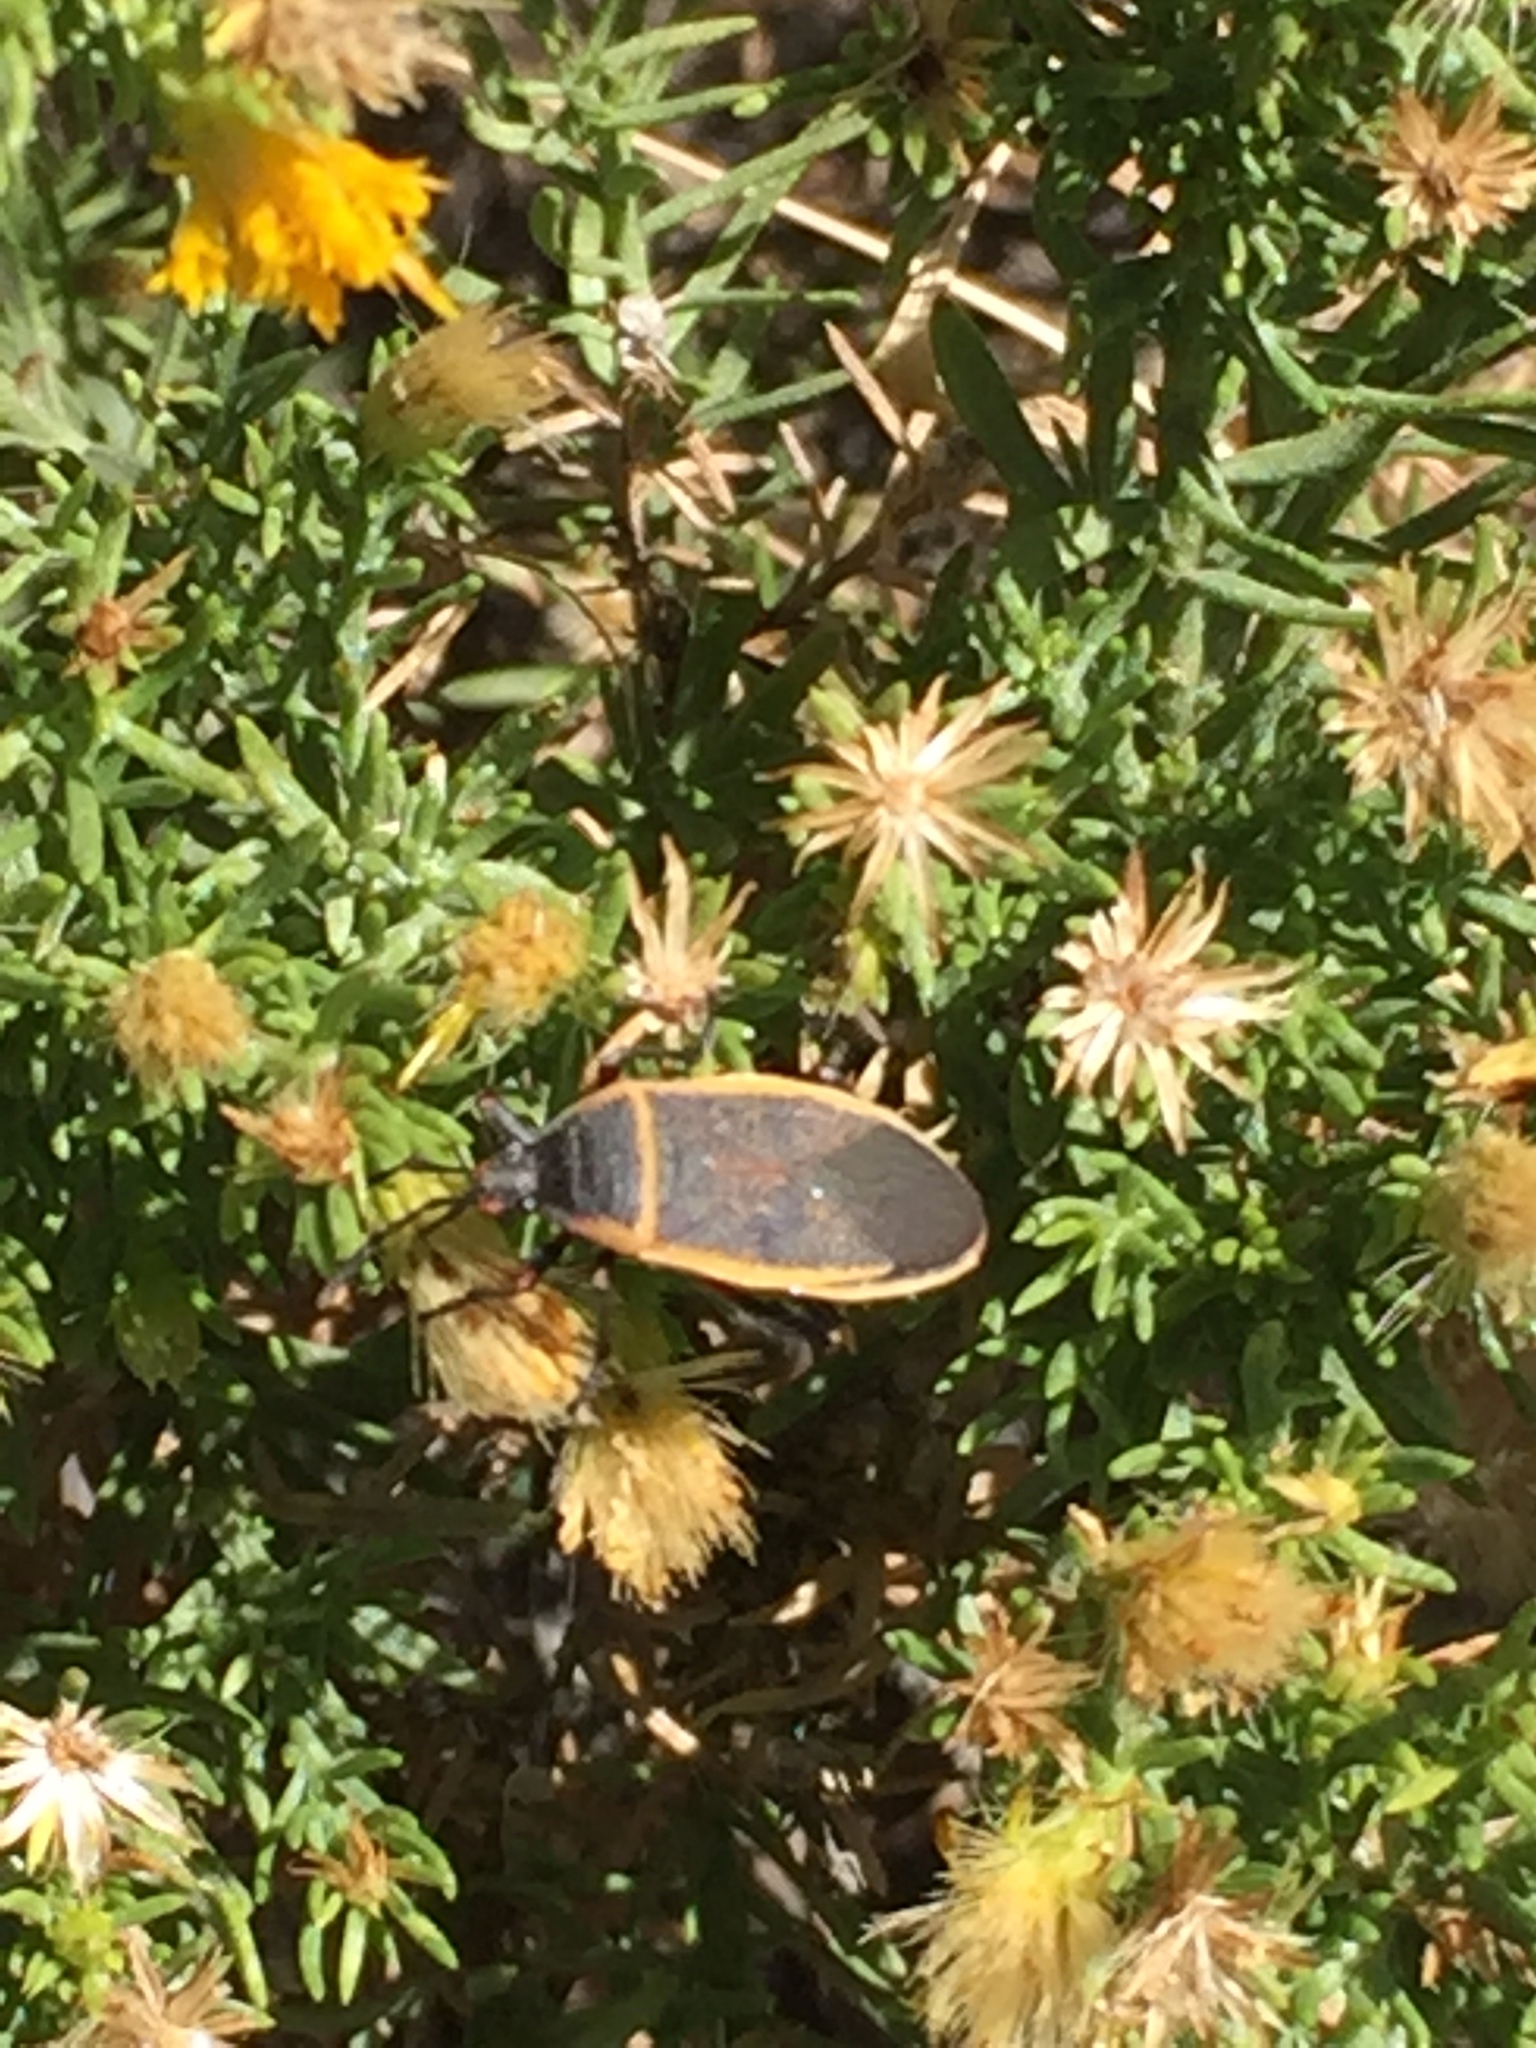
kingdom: Animalia
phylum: Arthropoda
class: Insecta
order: Hemiptera
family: Largidae
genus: Largus
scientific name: Largus cinctus
